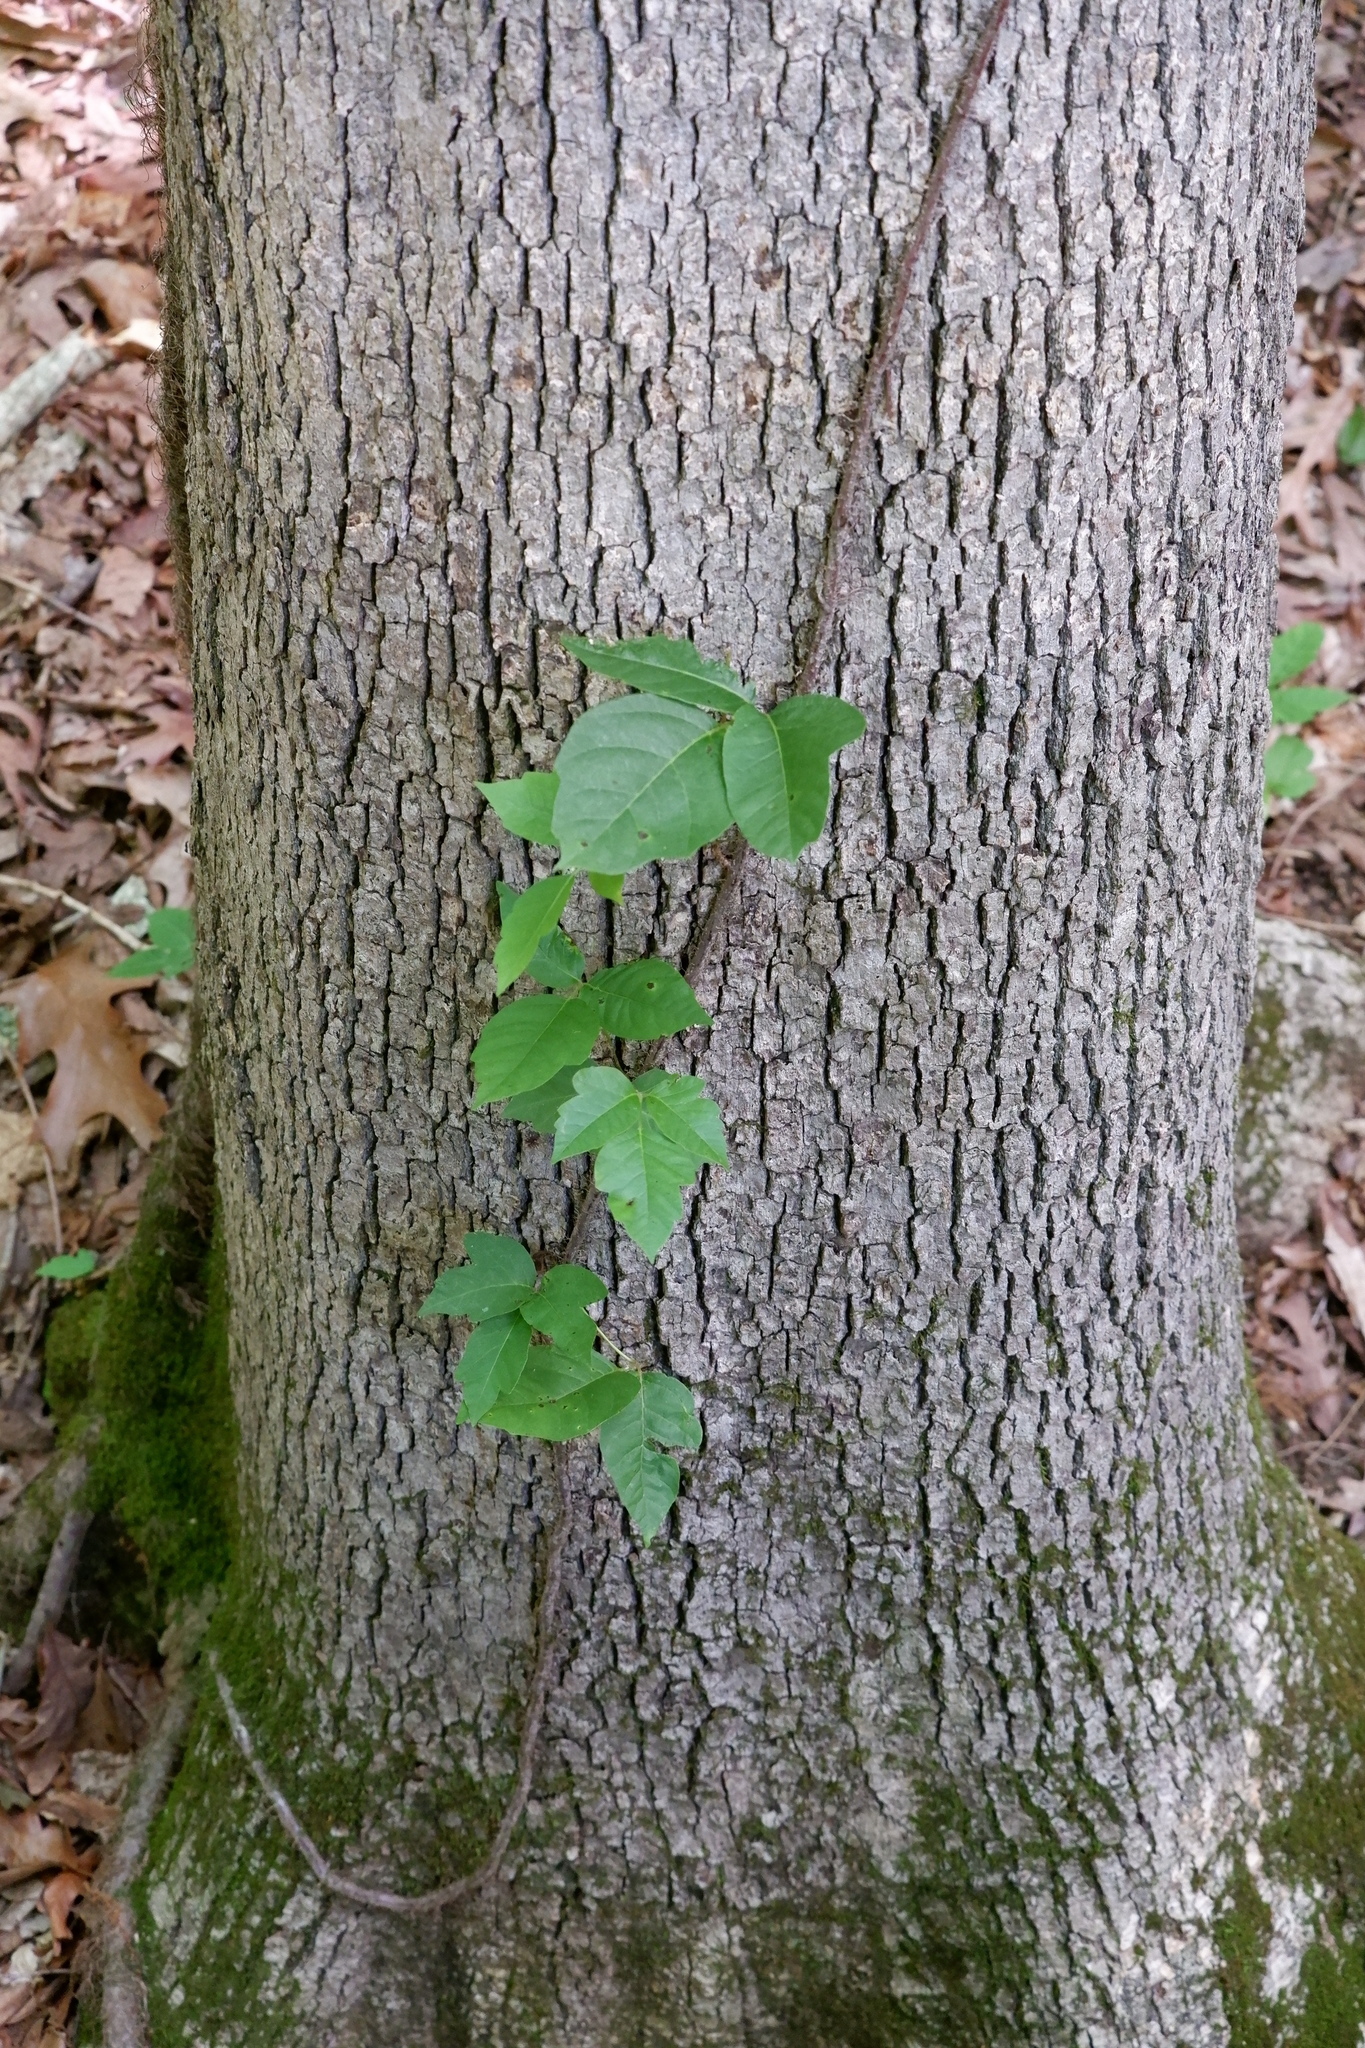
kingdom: Plantae
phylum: Tracheophyta
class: Magnoliopsida
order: Sapindales
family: Anacardiaceae
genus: Toxicodendron
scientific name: Toxicodendron radicans
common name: Poison ivy
